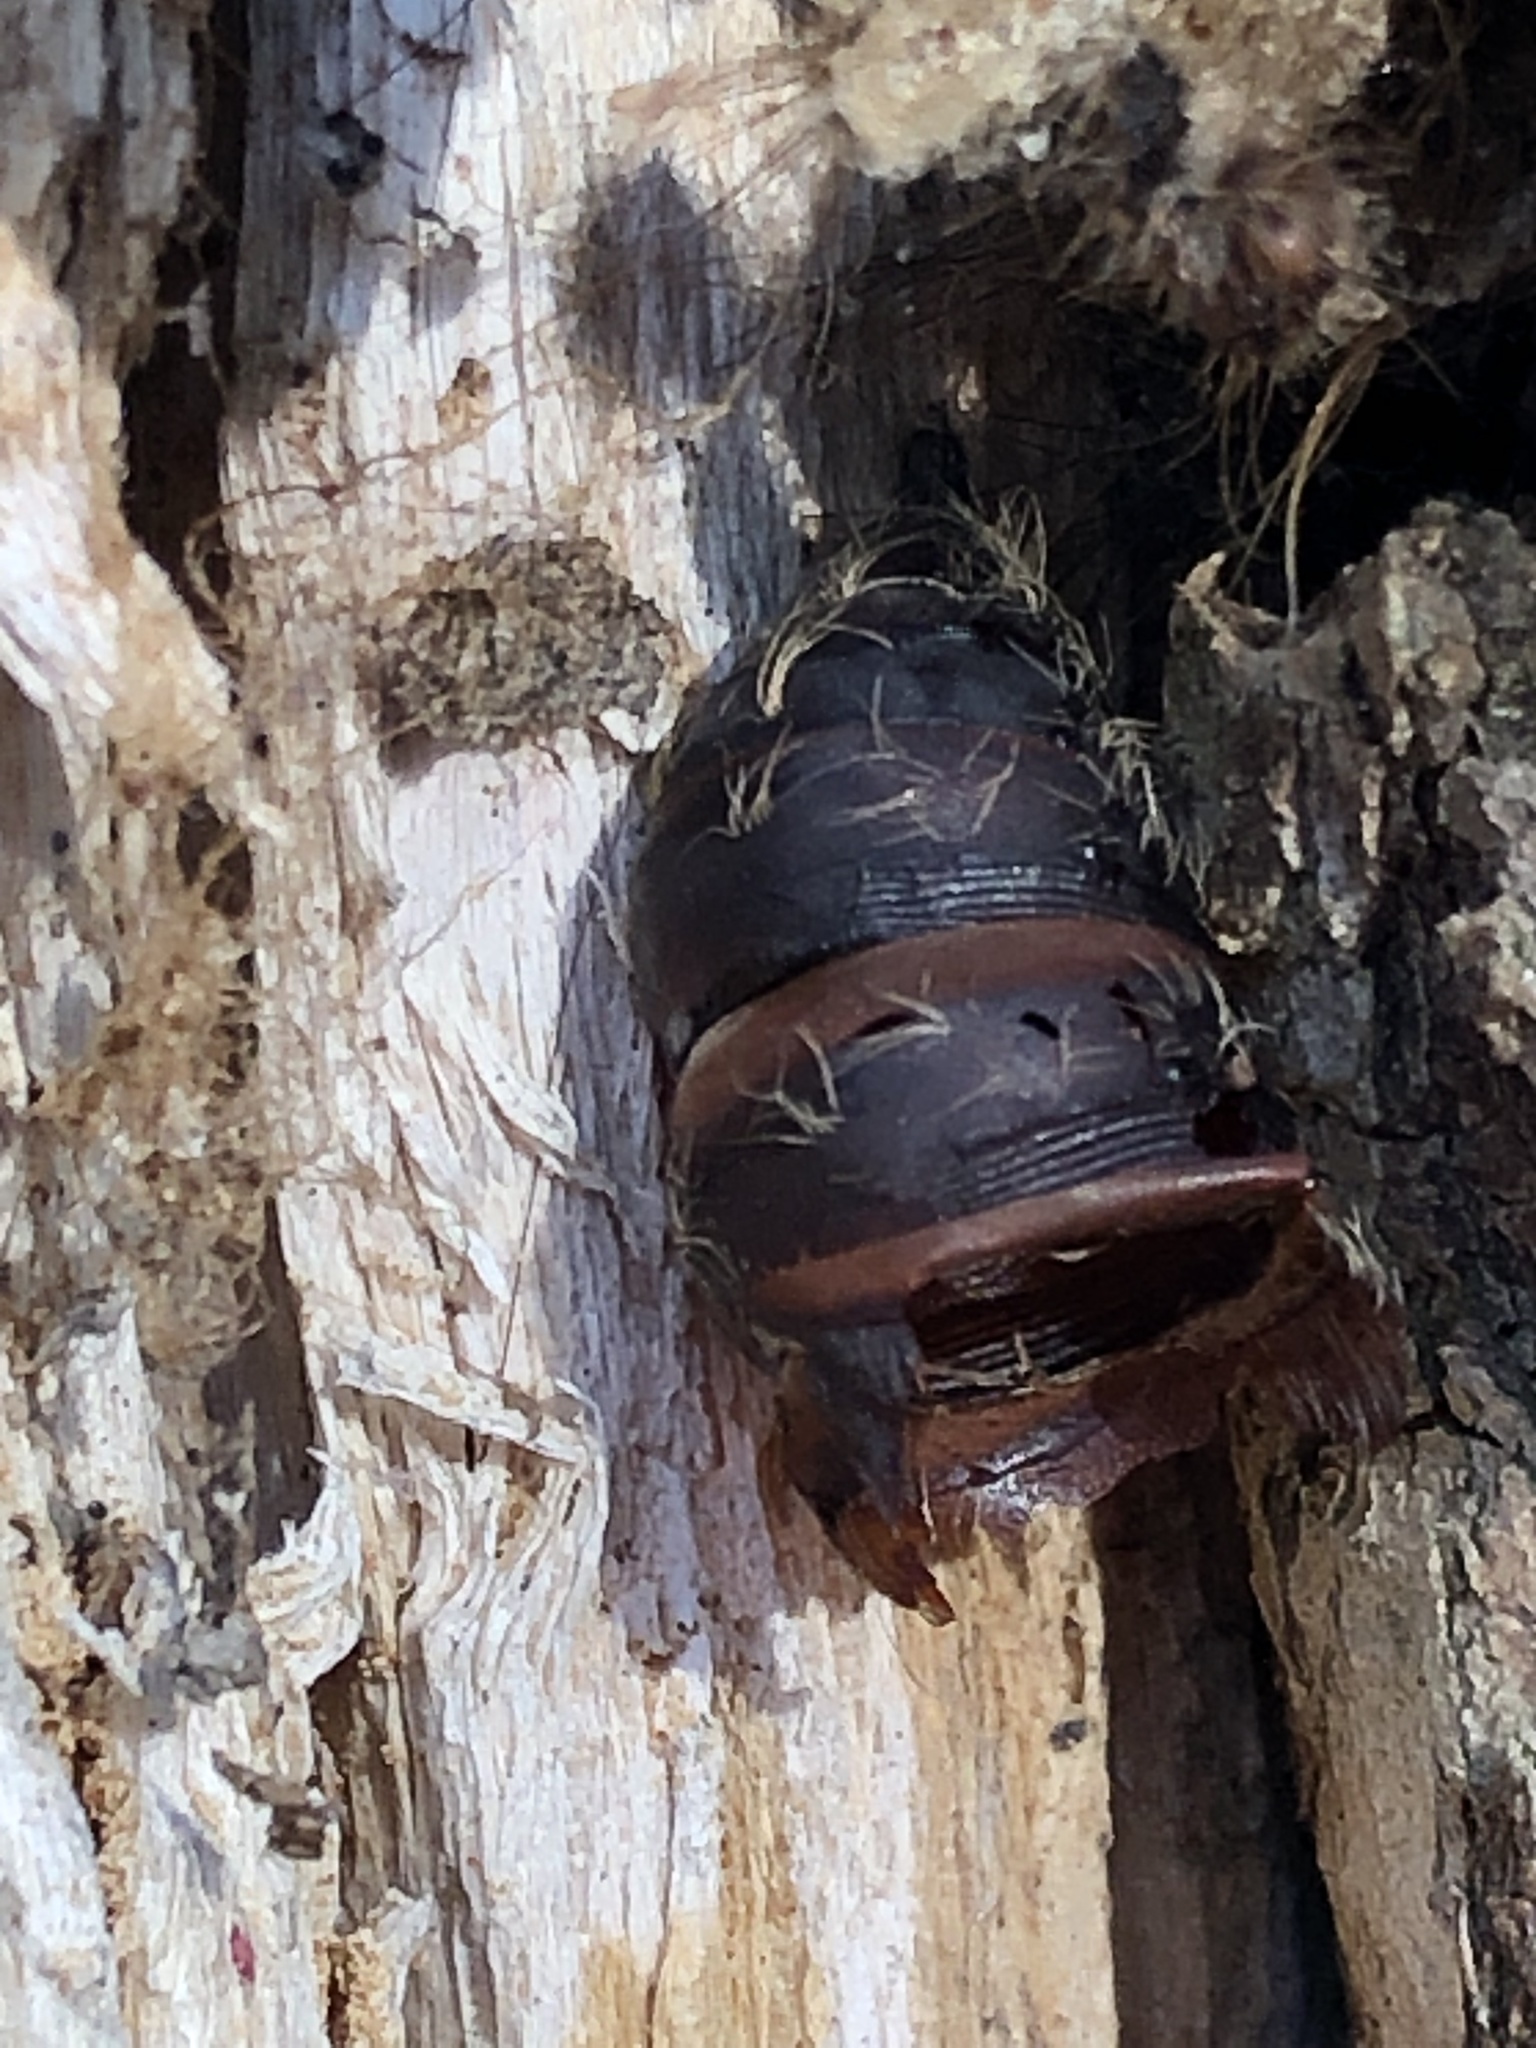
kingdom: Animalia
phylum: Arthropoda
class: Insecta
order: Lepidoptera
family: Erebidae
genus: Lymantria
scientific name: Lymantria dispar
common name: Gypsy moth
